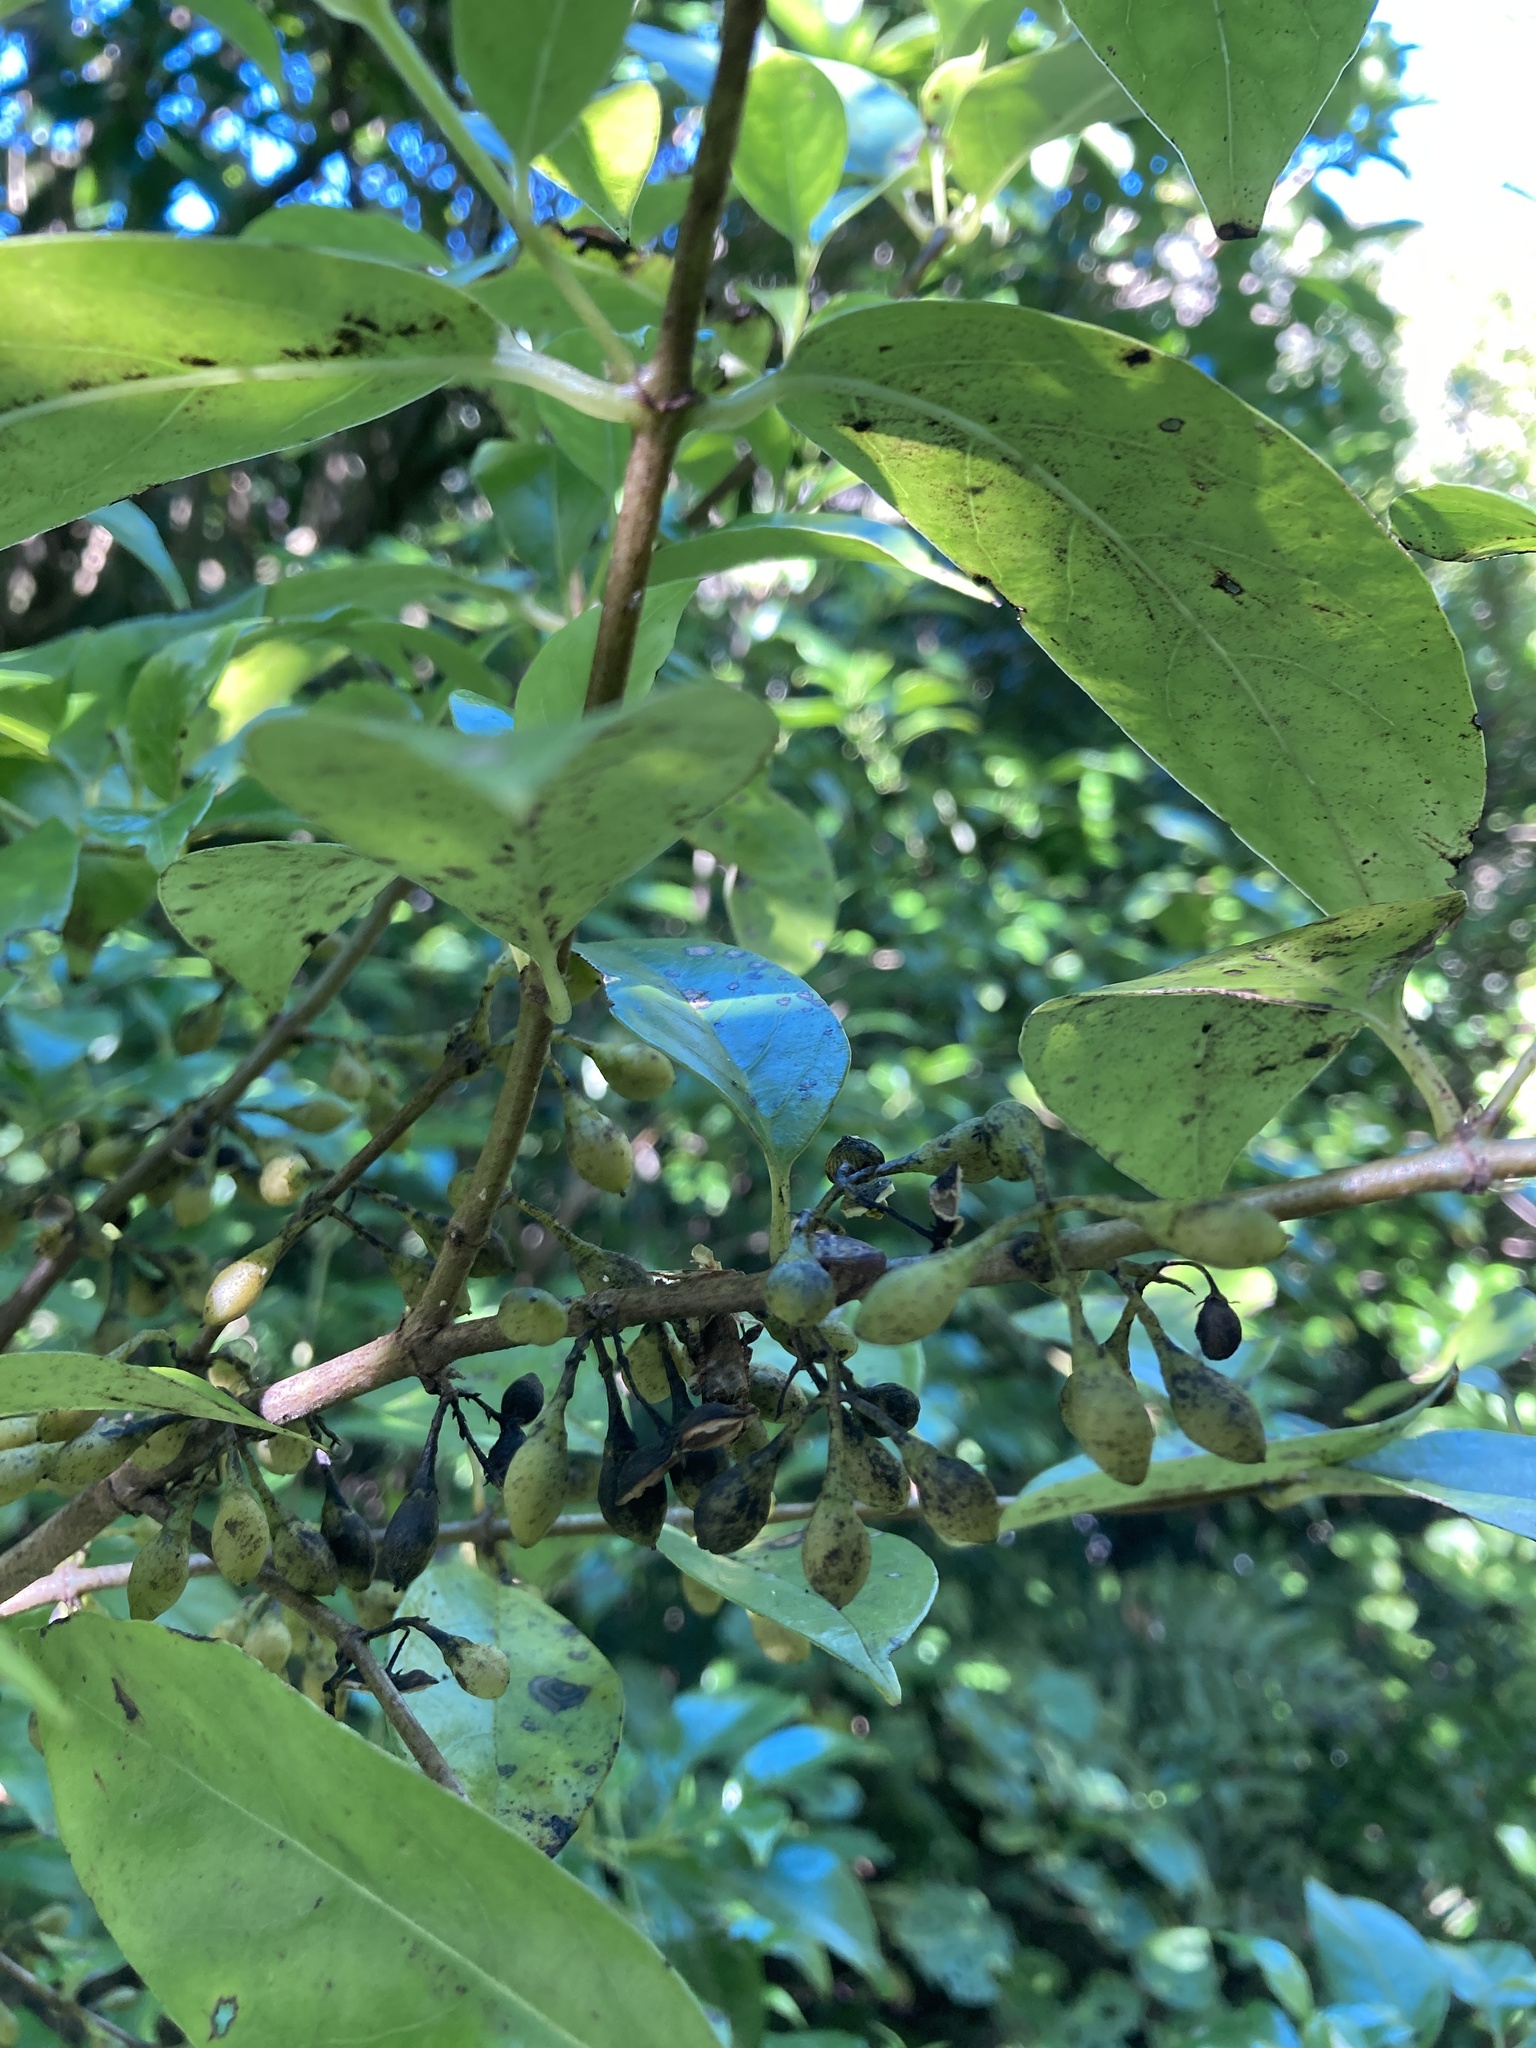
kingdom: Plantae
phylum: Tracheophyta
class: Magnoliopsida
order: Gentianales
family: Loganiaceae
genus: Geniostoma
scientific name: Geniostoma ligustrifolium
